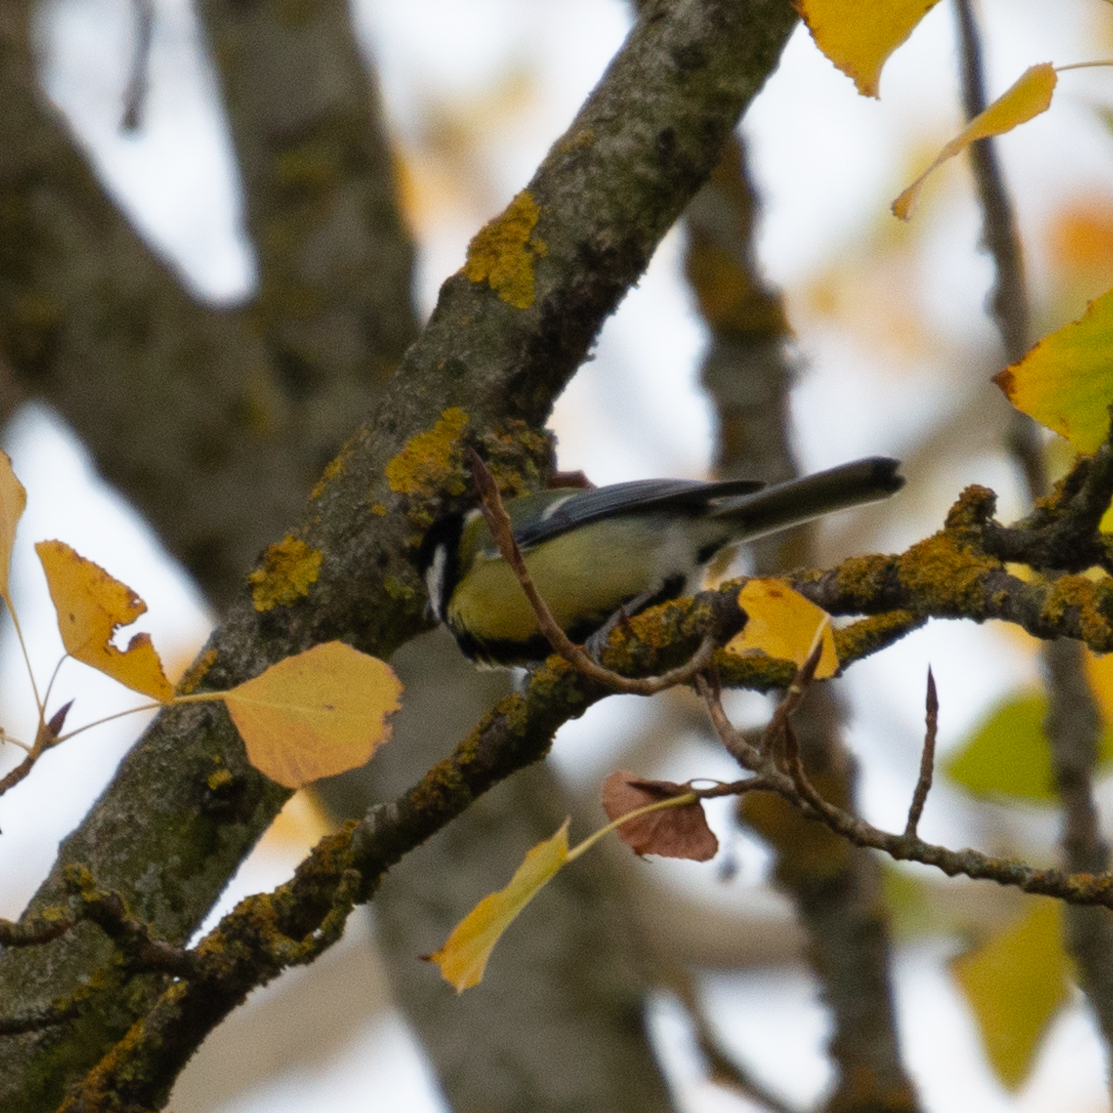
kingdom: Animalia
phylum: Chordata
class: Aves
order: Passeriformes
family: Paridae
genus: Parus
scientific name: Parus major
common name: Great tit
